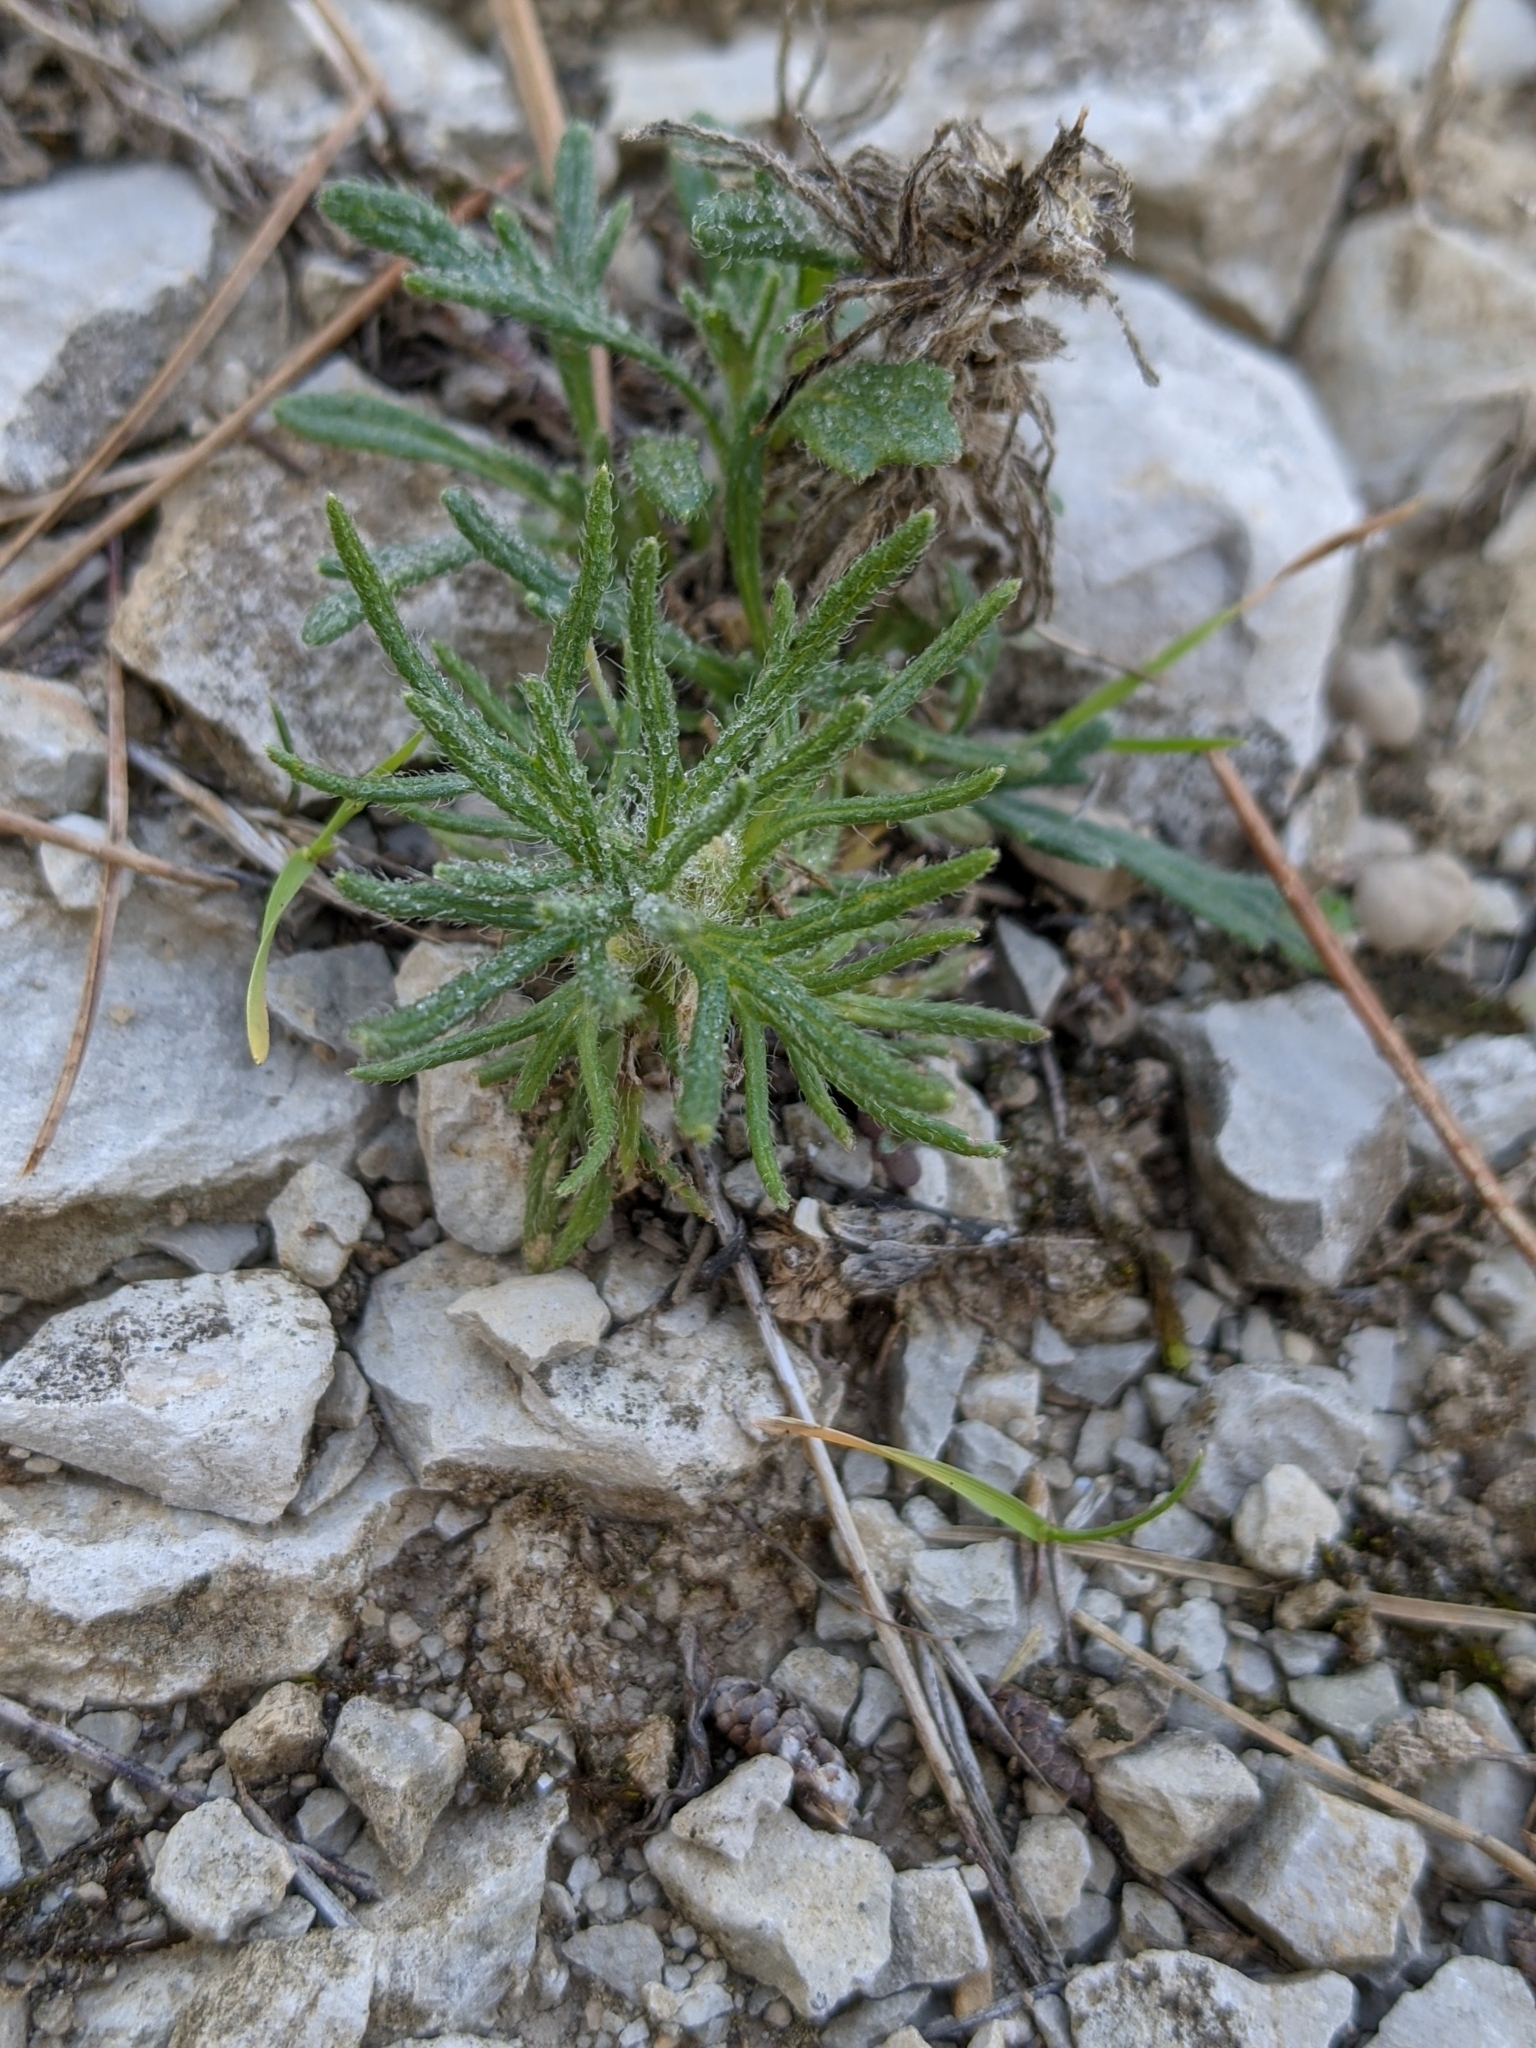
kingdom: Plantae
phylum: Tracheophyta
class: Magnoliopsida
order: Lamiales
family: Lamiaceae
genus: Ajuga
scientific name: Ajuga chamaepitys
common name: Ground-pine
